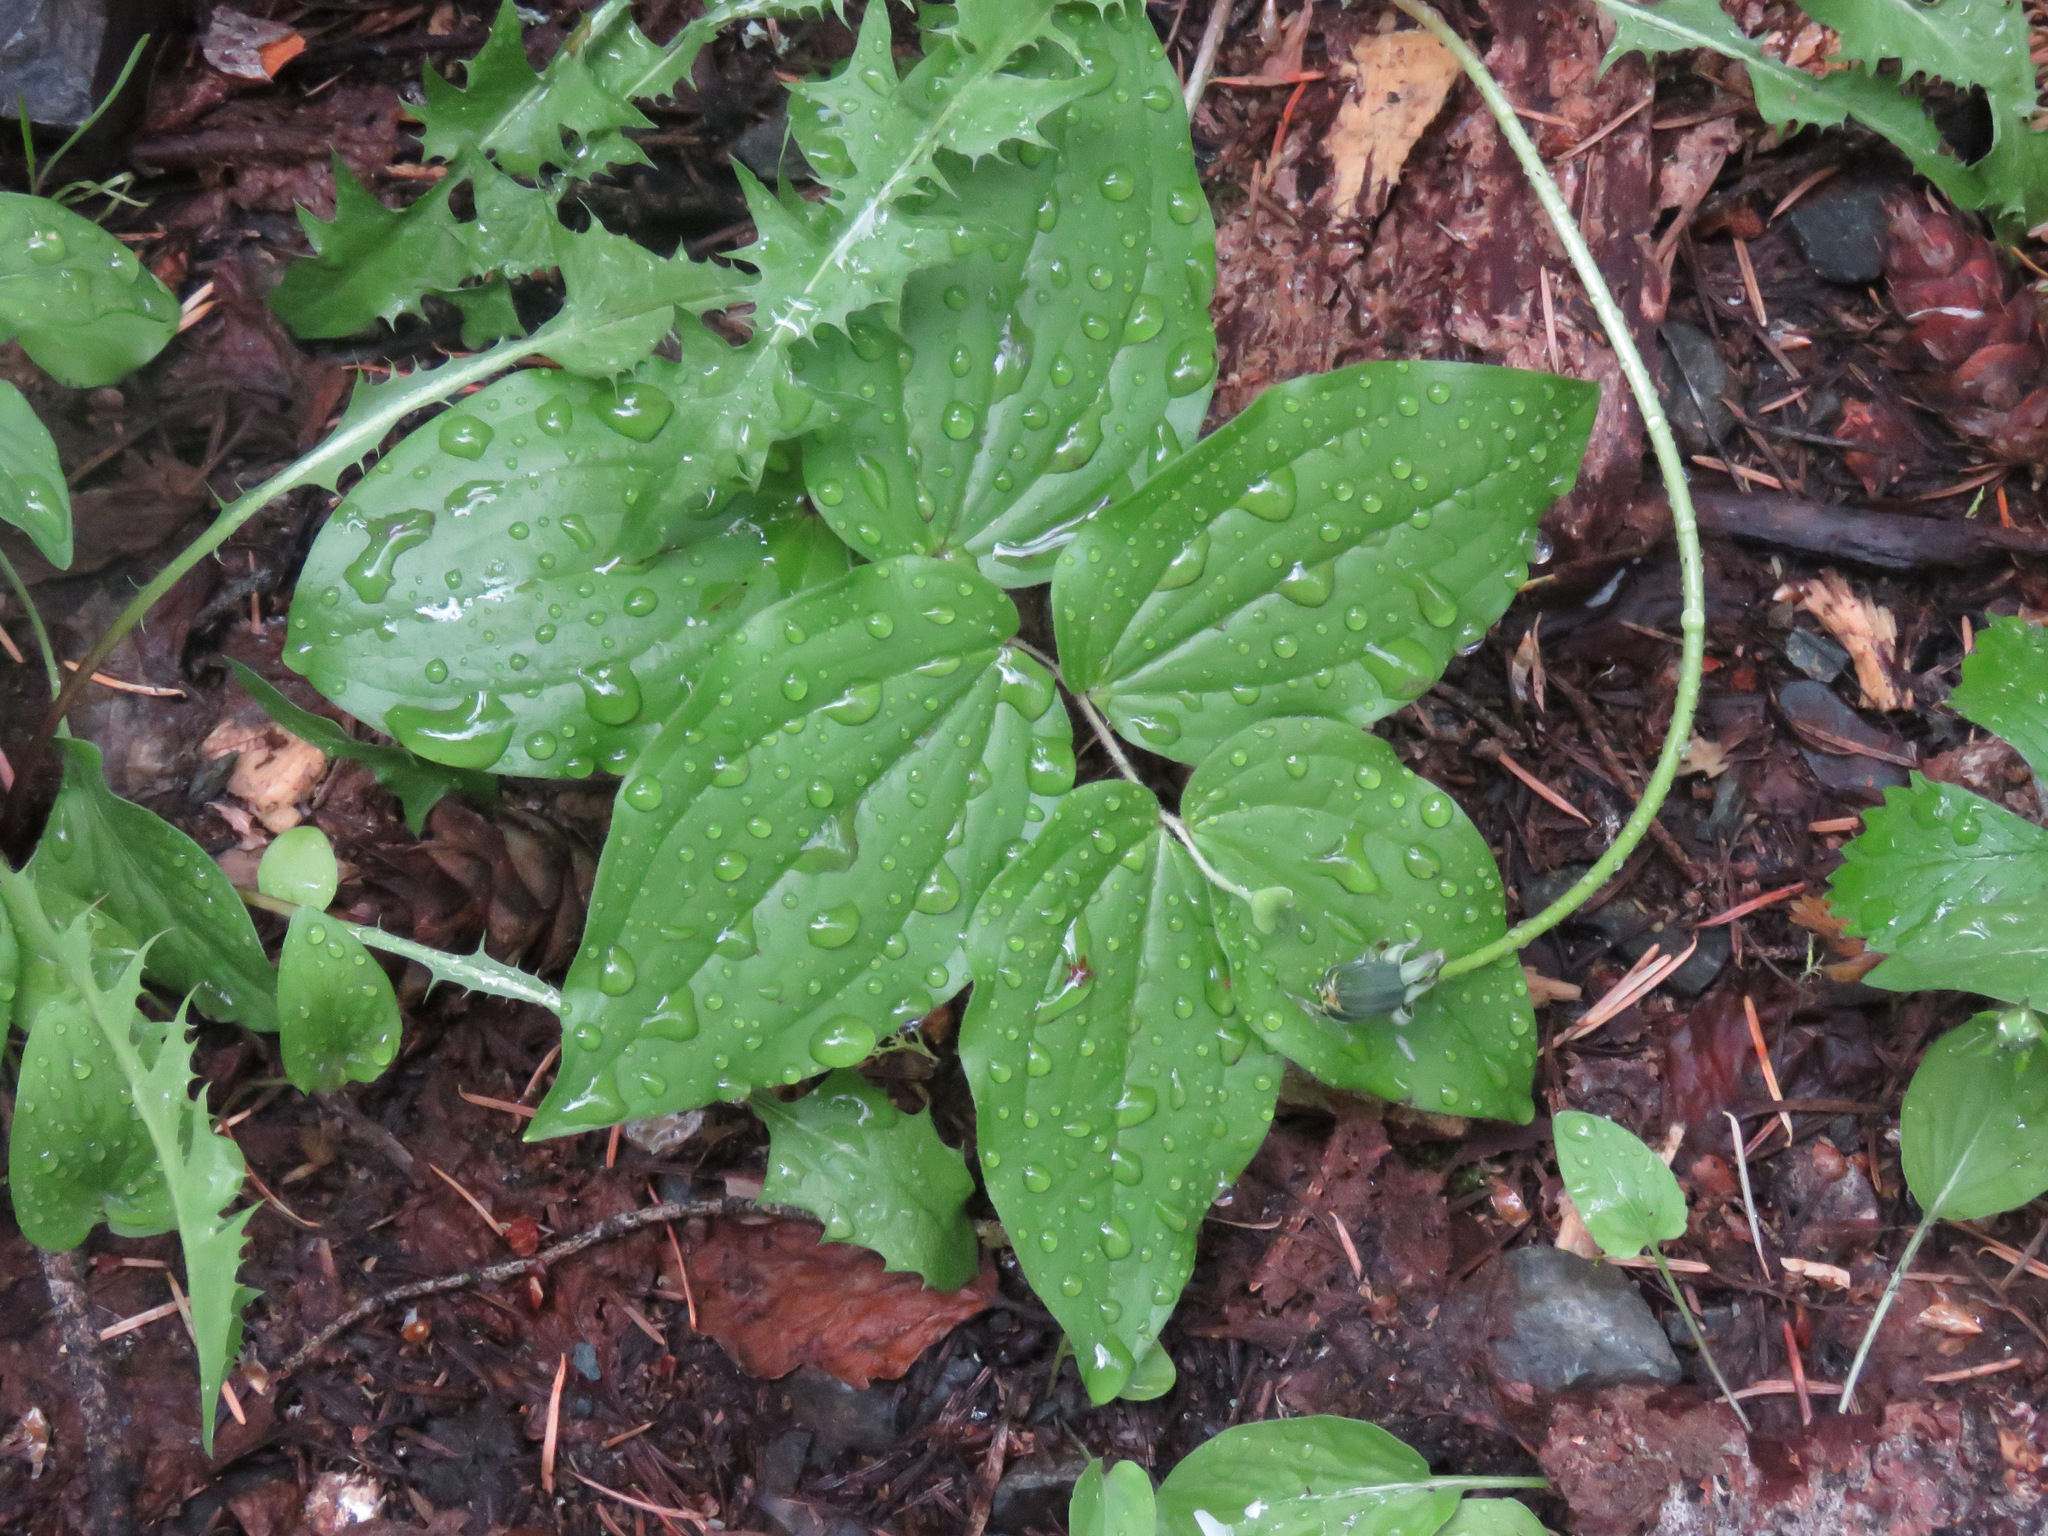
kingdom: Plantae
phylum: Tracheophyta
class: Liliopsida
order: Liliales
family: Liliaceae
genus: Prosartes
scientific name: Prosartes trachycarpa
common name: Rough-fruit fairy-bells
